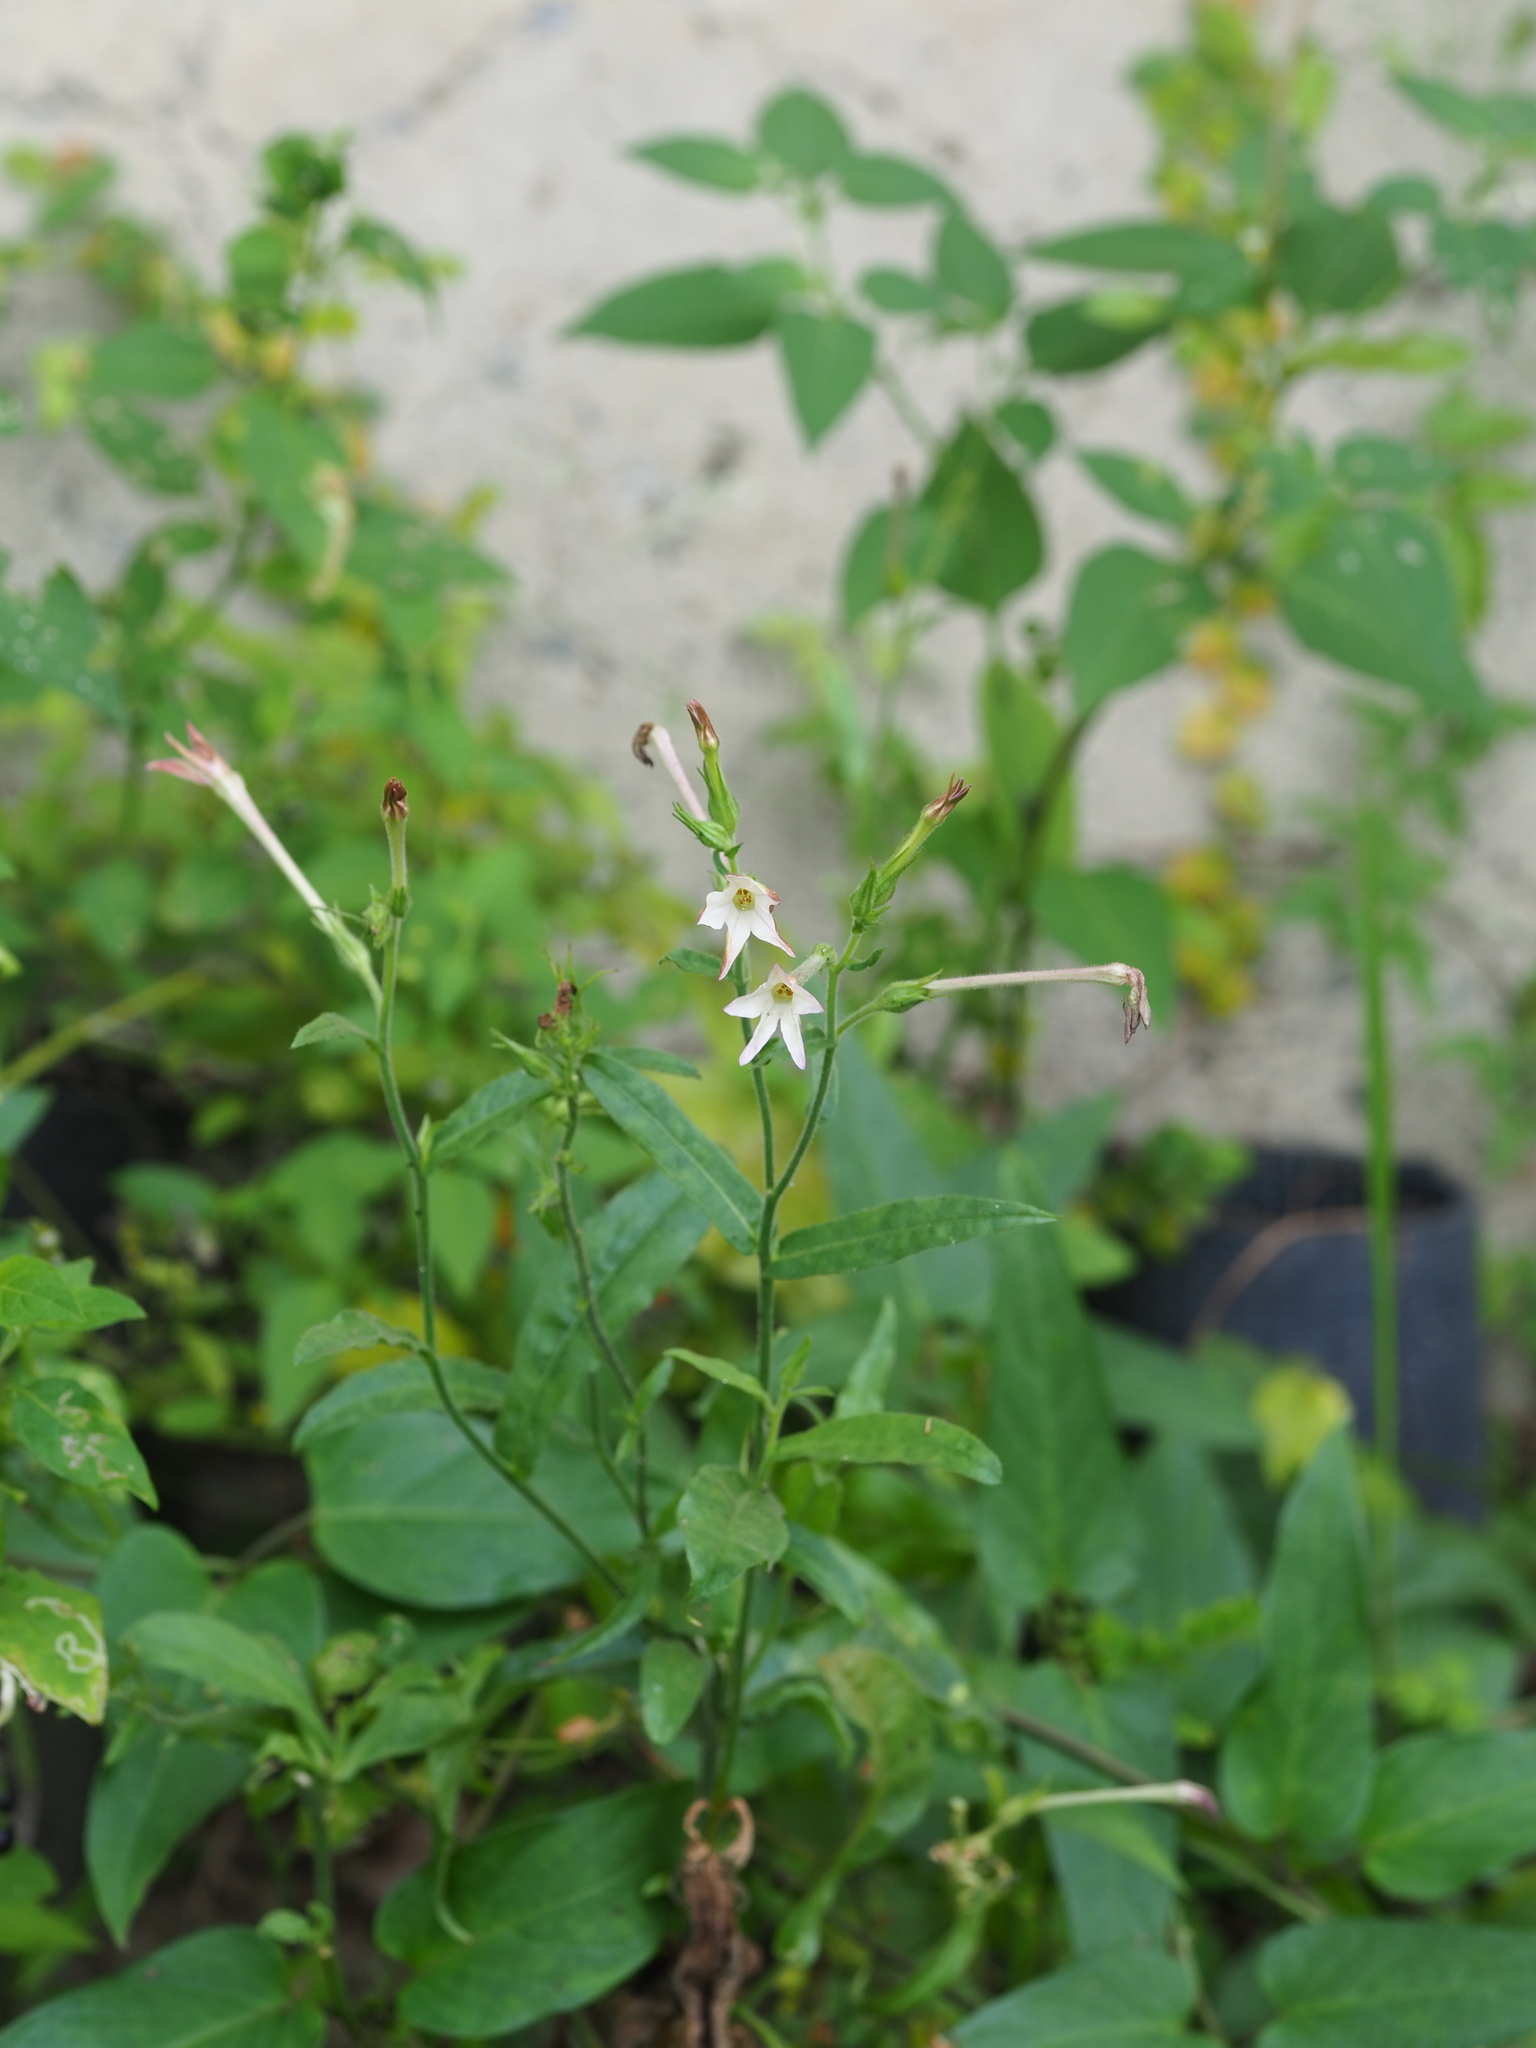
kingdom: Plantae
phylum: Tracheophyta
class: Magnoliopsida
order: Solanales
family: Solanaceae
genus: Nicotiana
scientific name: Nicotiana plumbaginifolia
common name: Tex-mex tobacco
